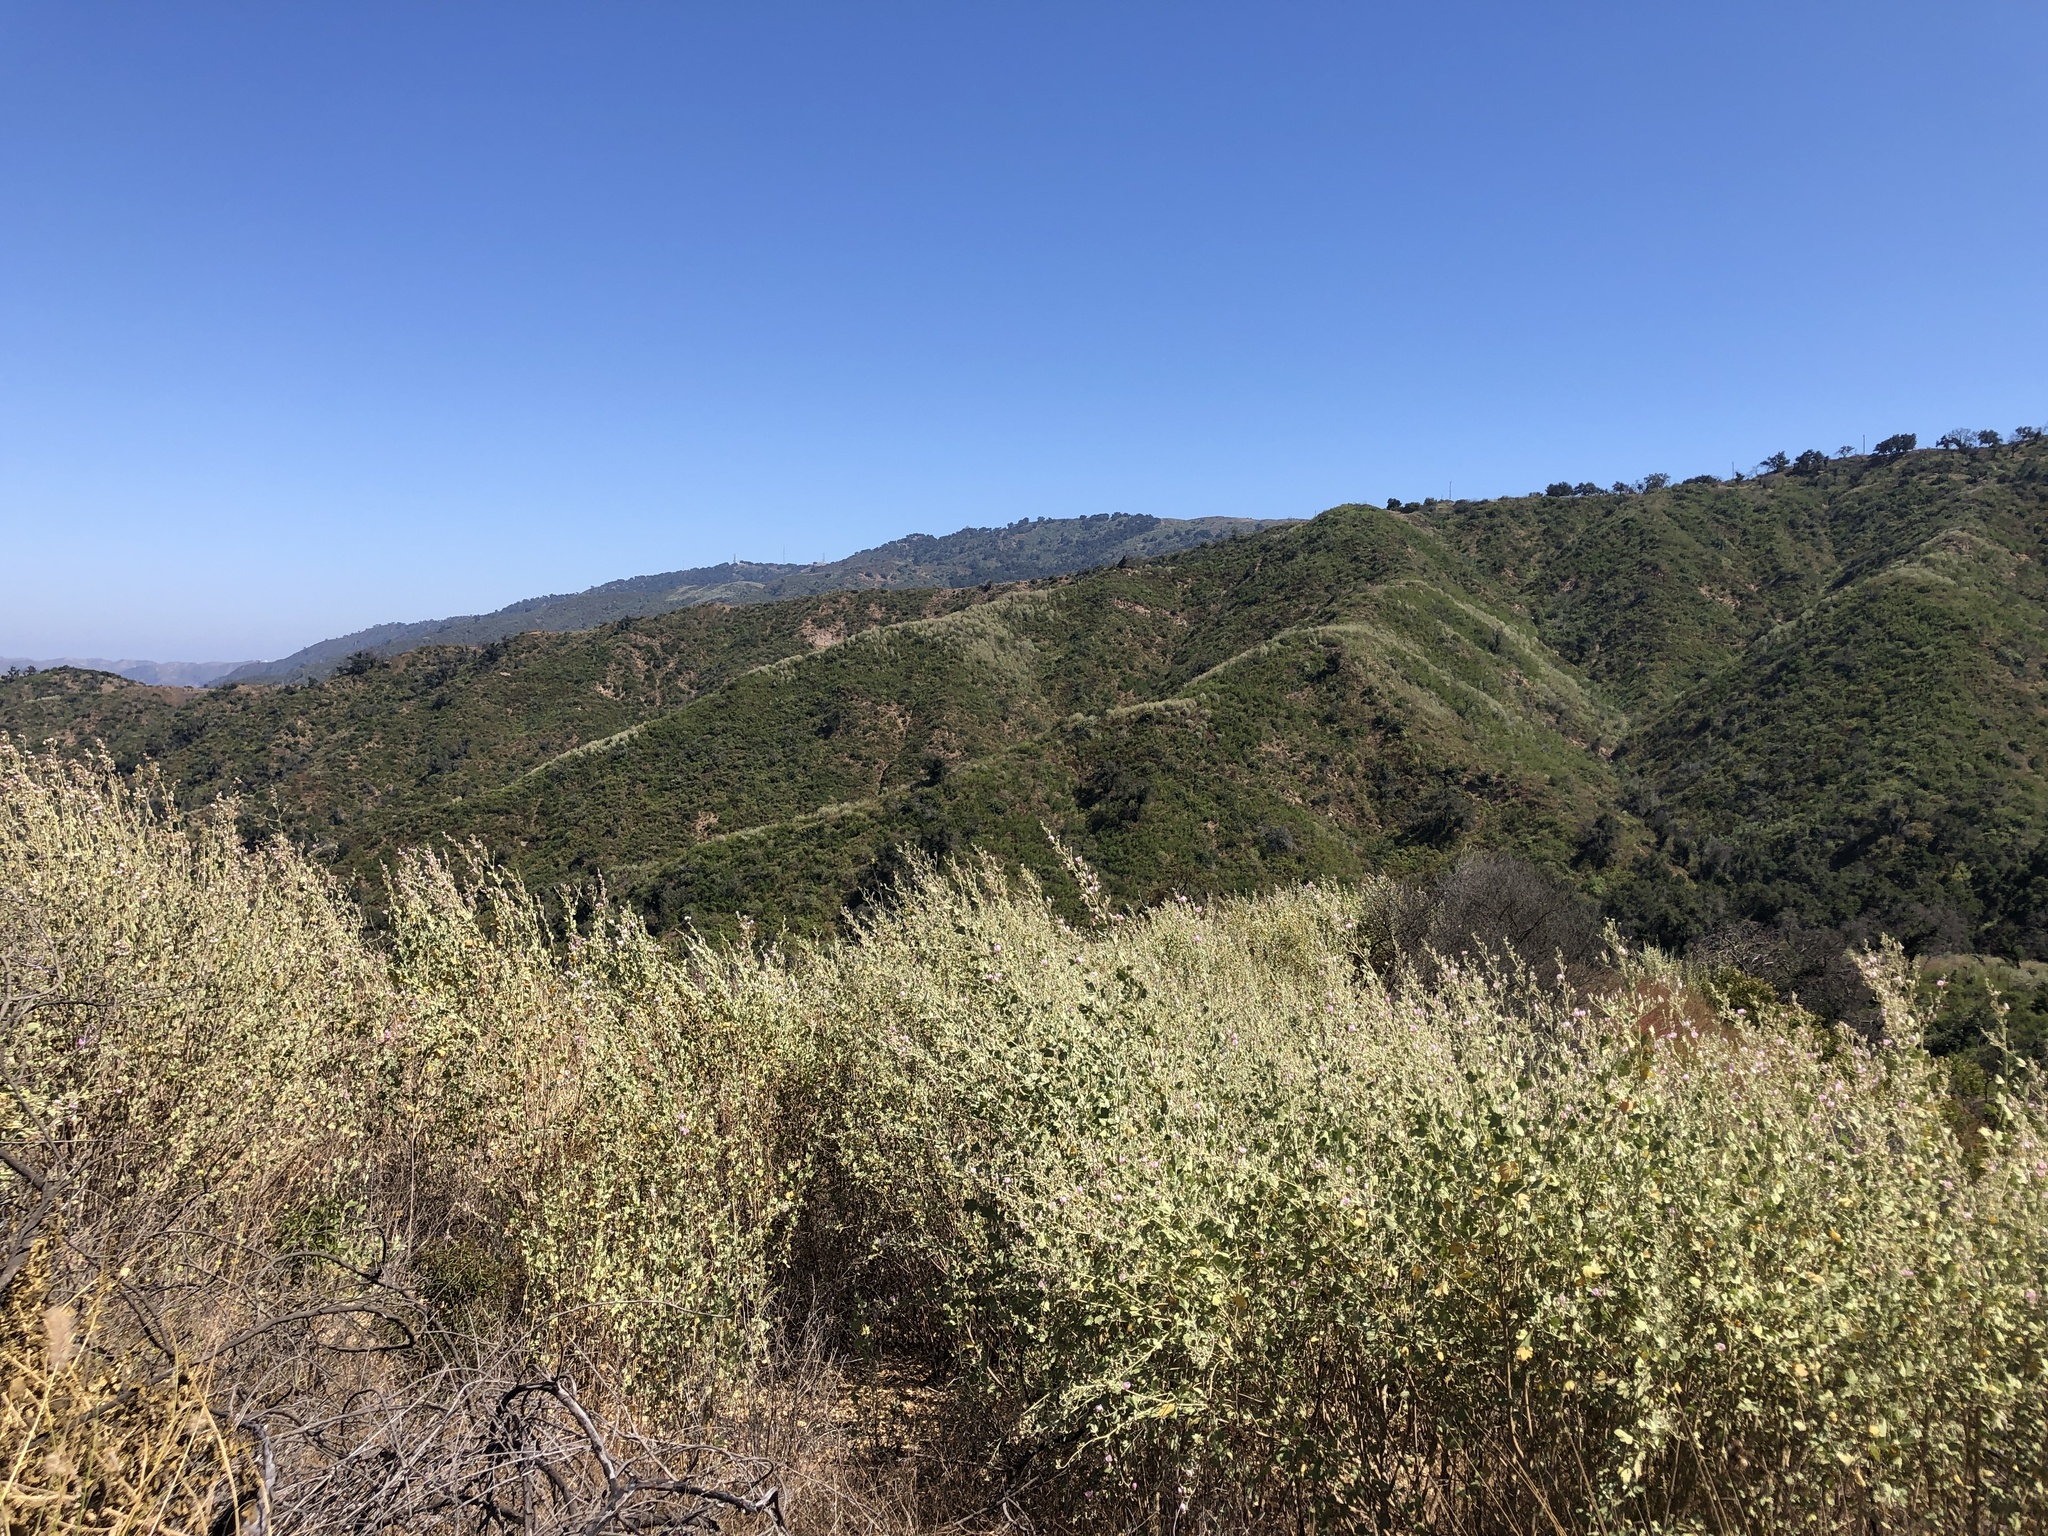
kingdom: Plantae
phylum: Tracheophyta
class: Magnoliopsida
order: Malvales
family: Malvaceae
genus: Malacothamnus
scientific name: Malacothamnus fasciculatus
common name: Sant cruz island bush-mallow
